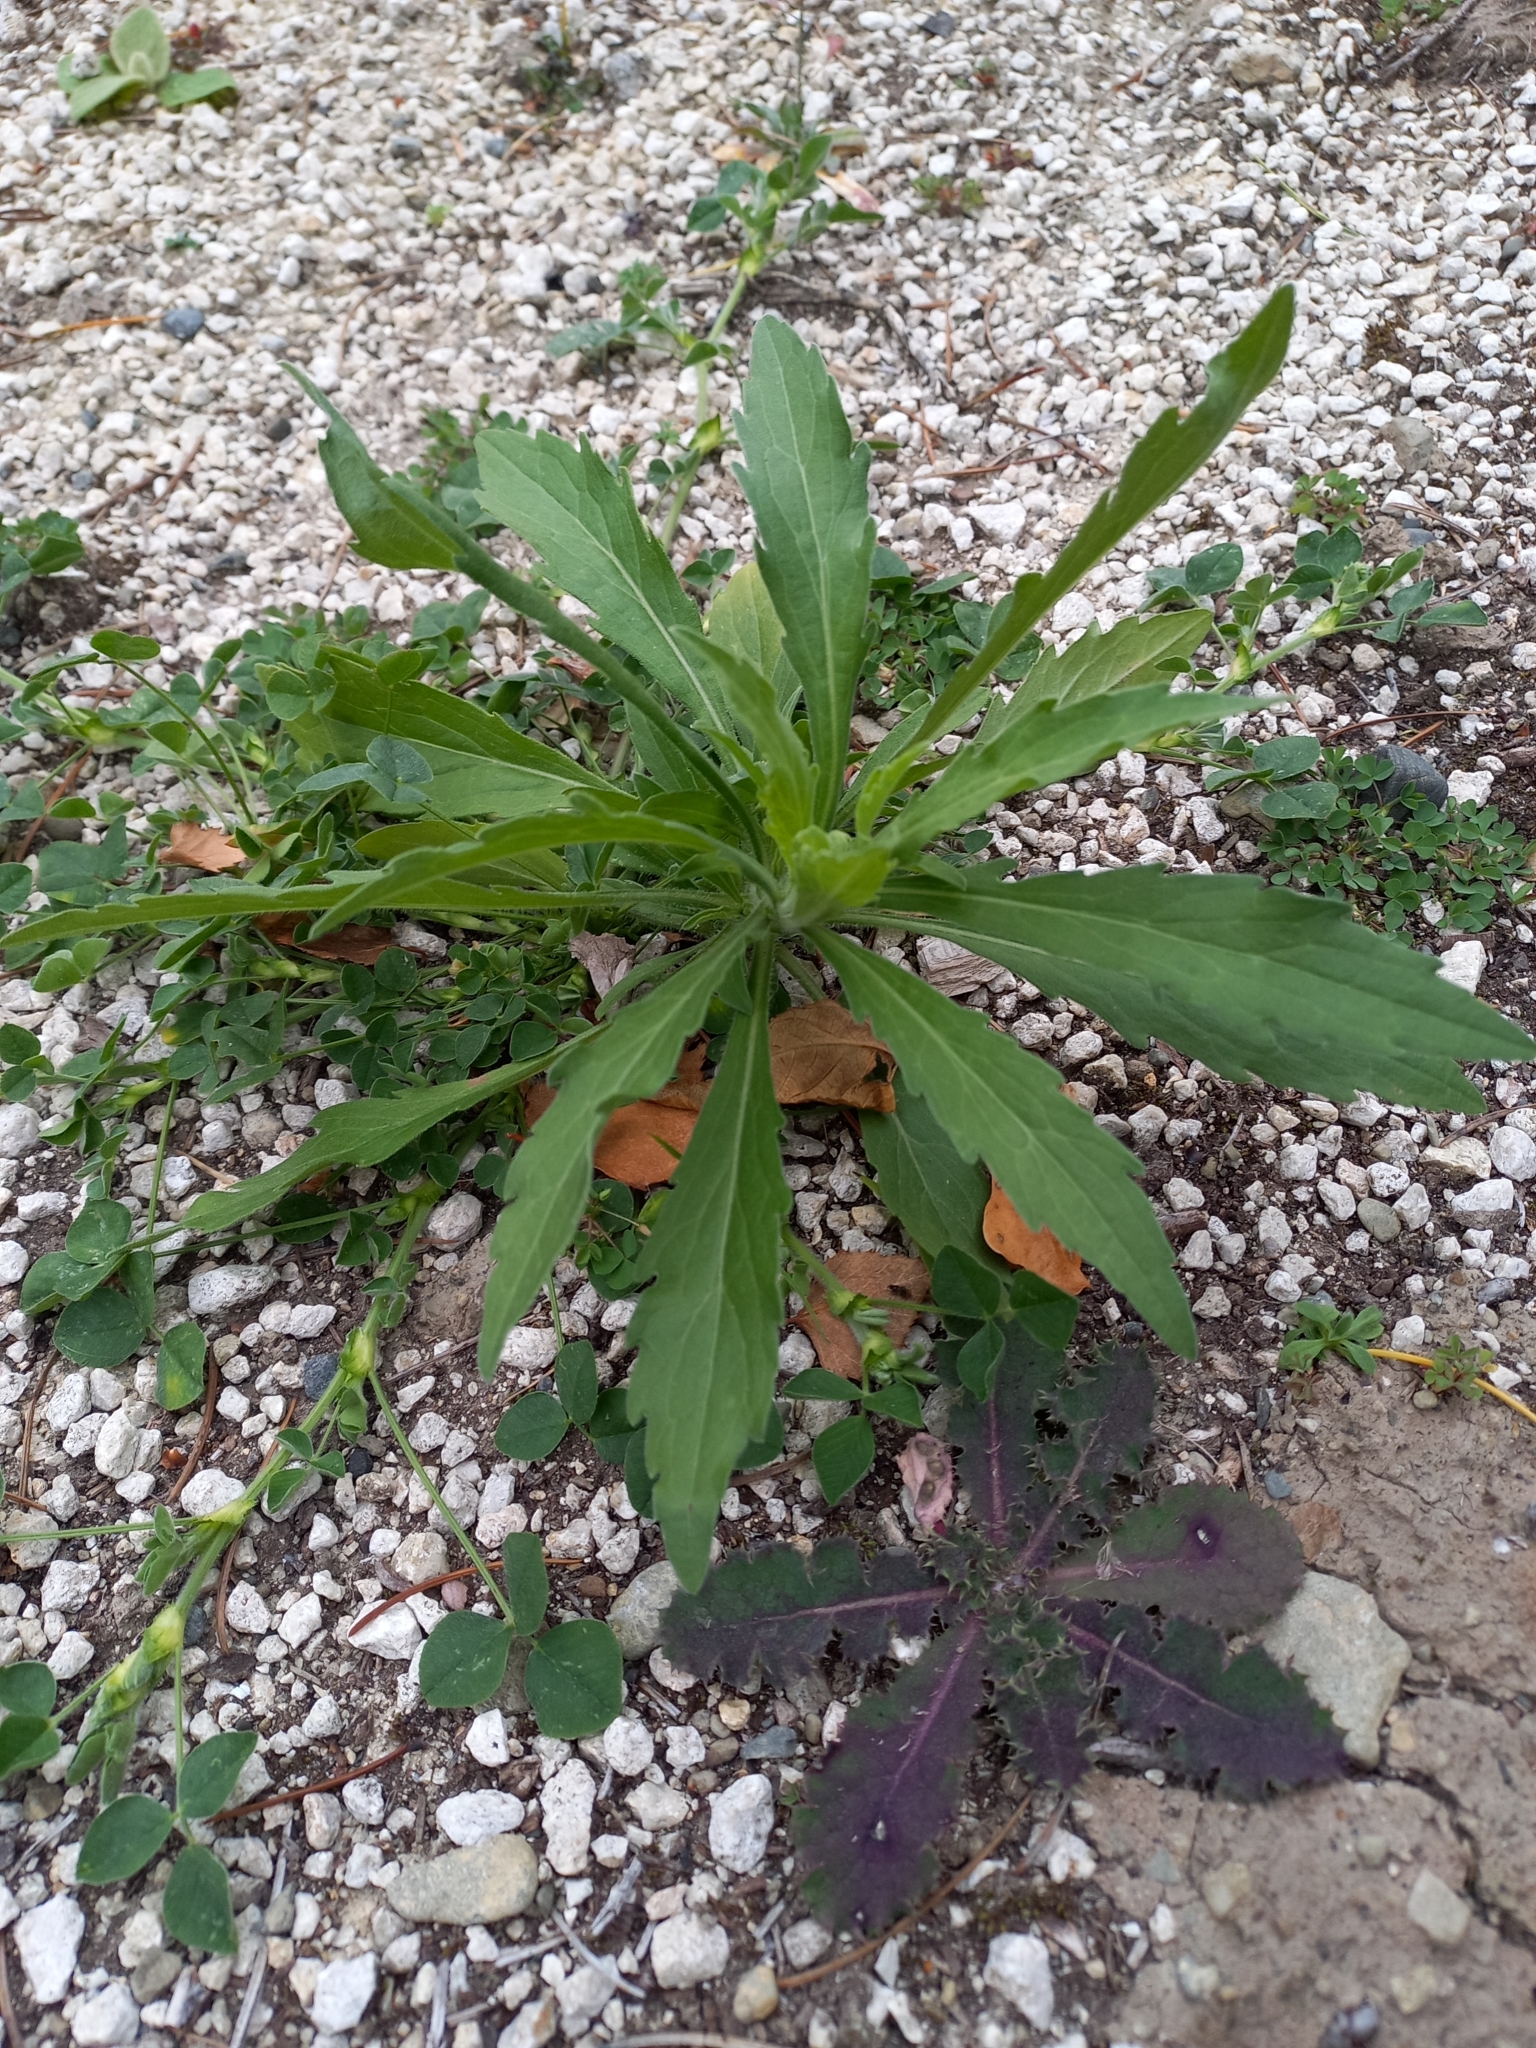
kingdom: Plantae
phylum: Tracheophyta
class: Magnoliopsida
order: Asterales
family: Asteraceae
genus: Erigeron
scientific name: Erigeron sumatrensis
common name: Daisy
